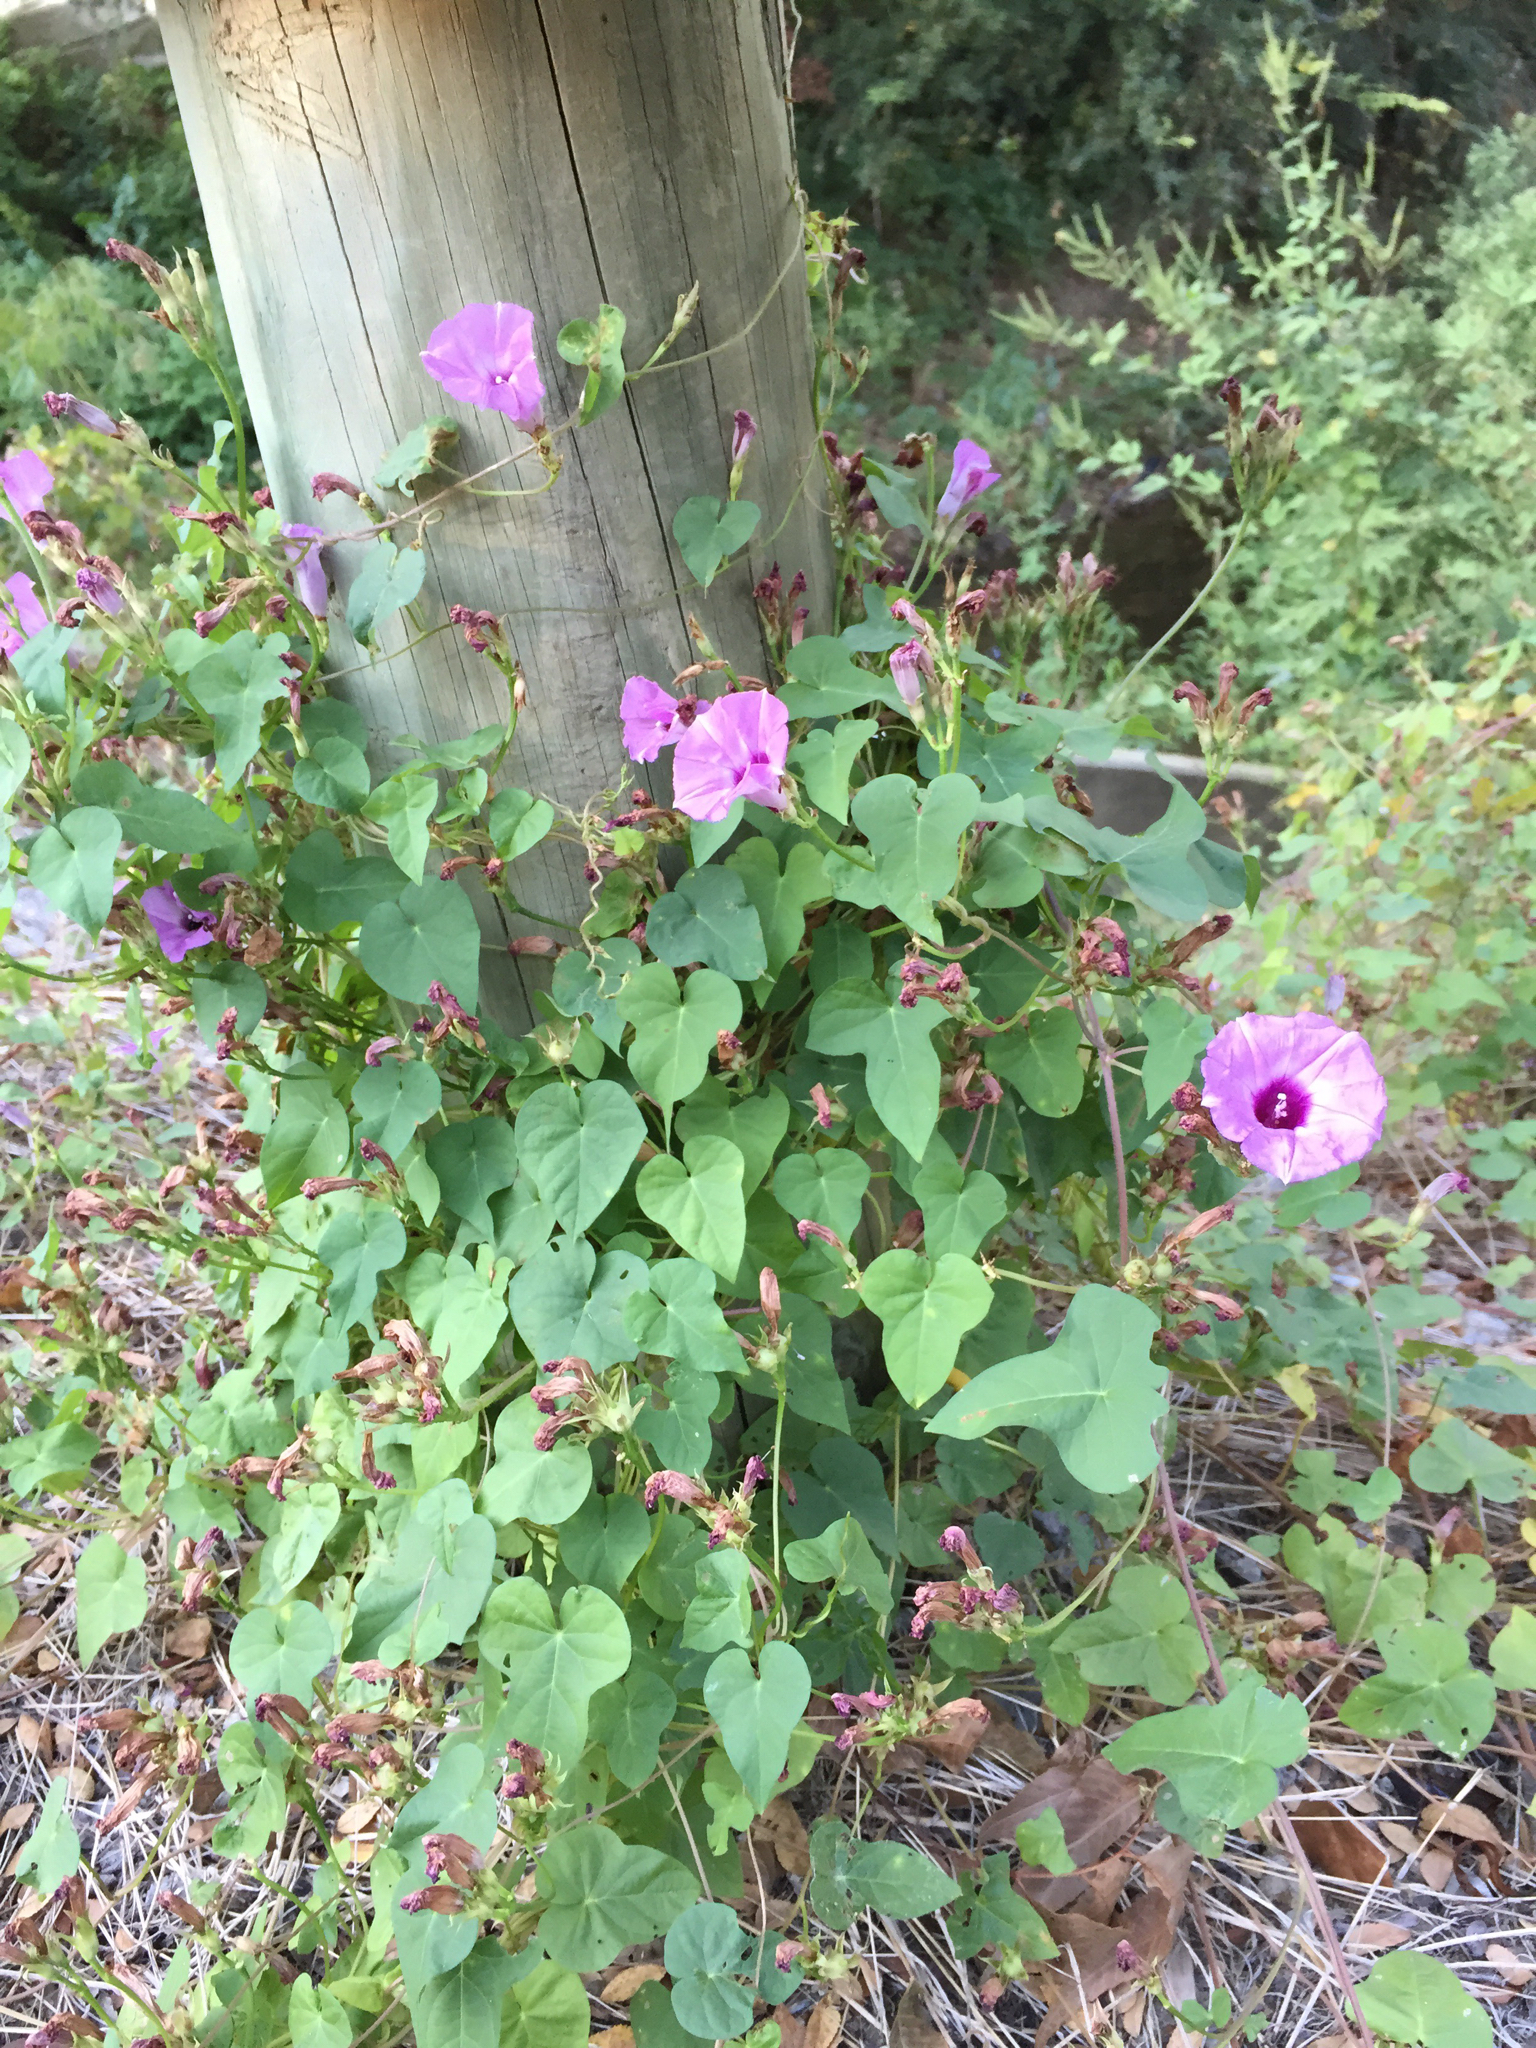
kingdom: Plantae
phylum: Tracheophyta
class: Magnoliopsida
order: Solanales
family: Convolvulaceae
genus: Ipomoea
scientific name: Ipomoea cordatotriloba
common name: Cotton morning glory
